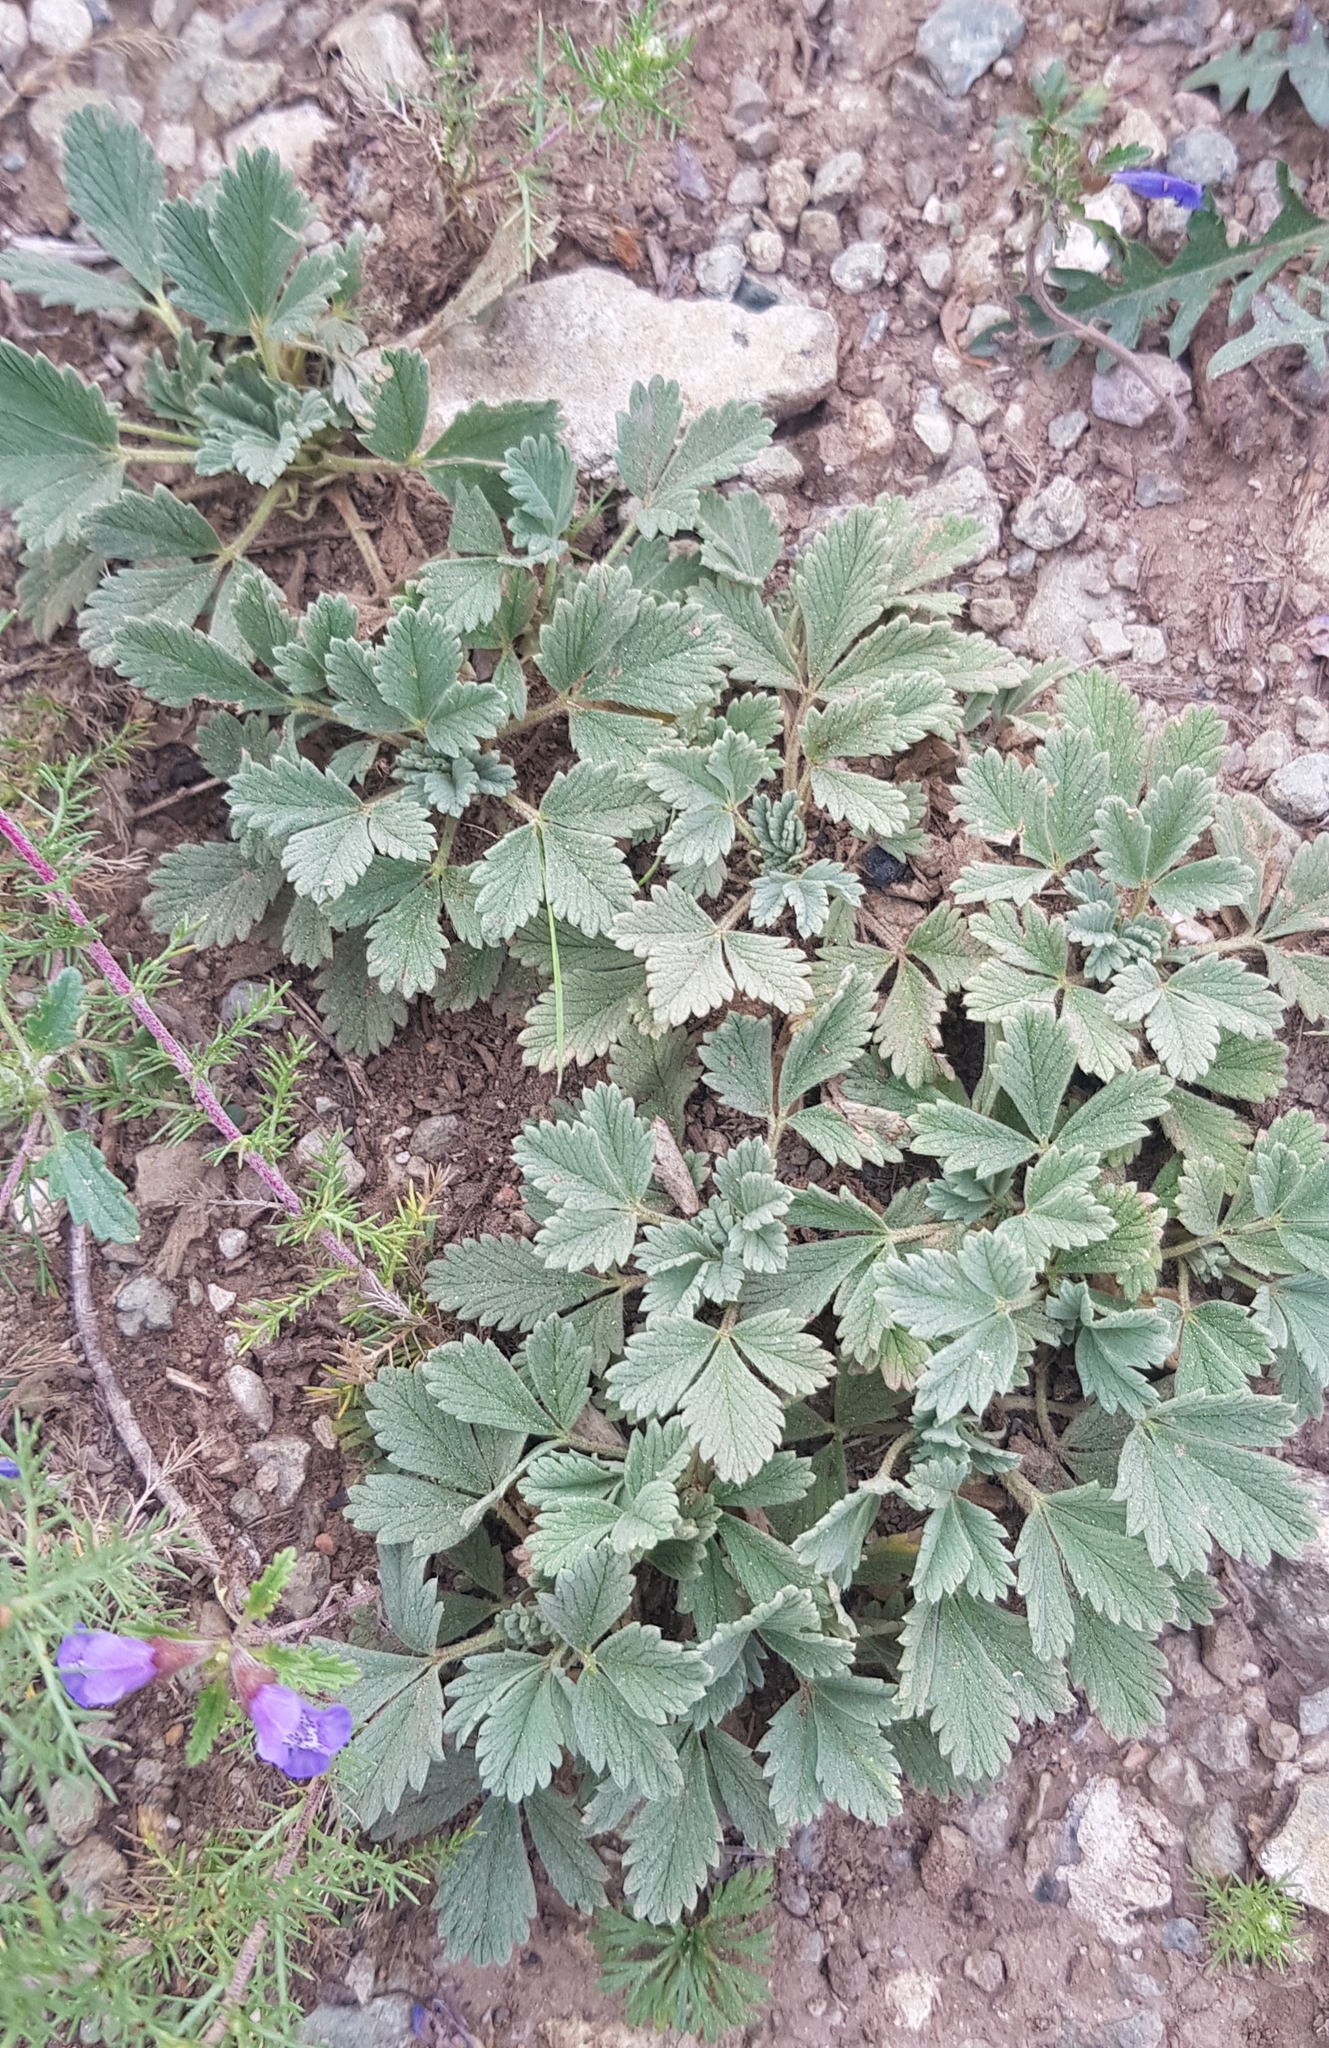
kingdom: Plantae
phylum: Tracheophyta
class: Magnoliopsida
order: Rosales
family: Rosaceae
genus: Potentilla
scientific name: Potentilla acaulis
